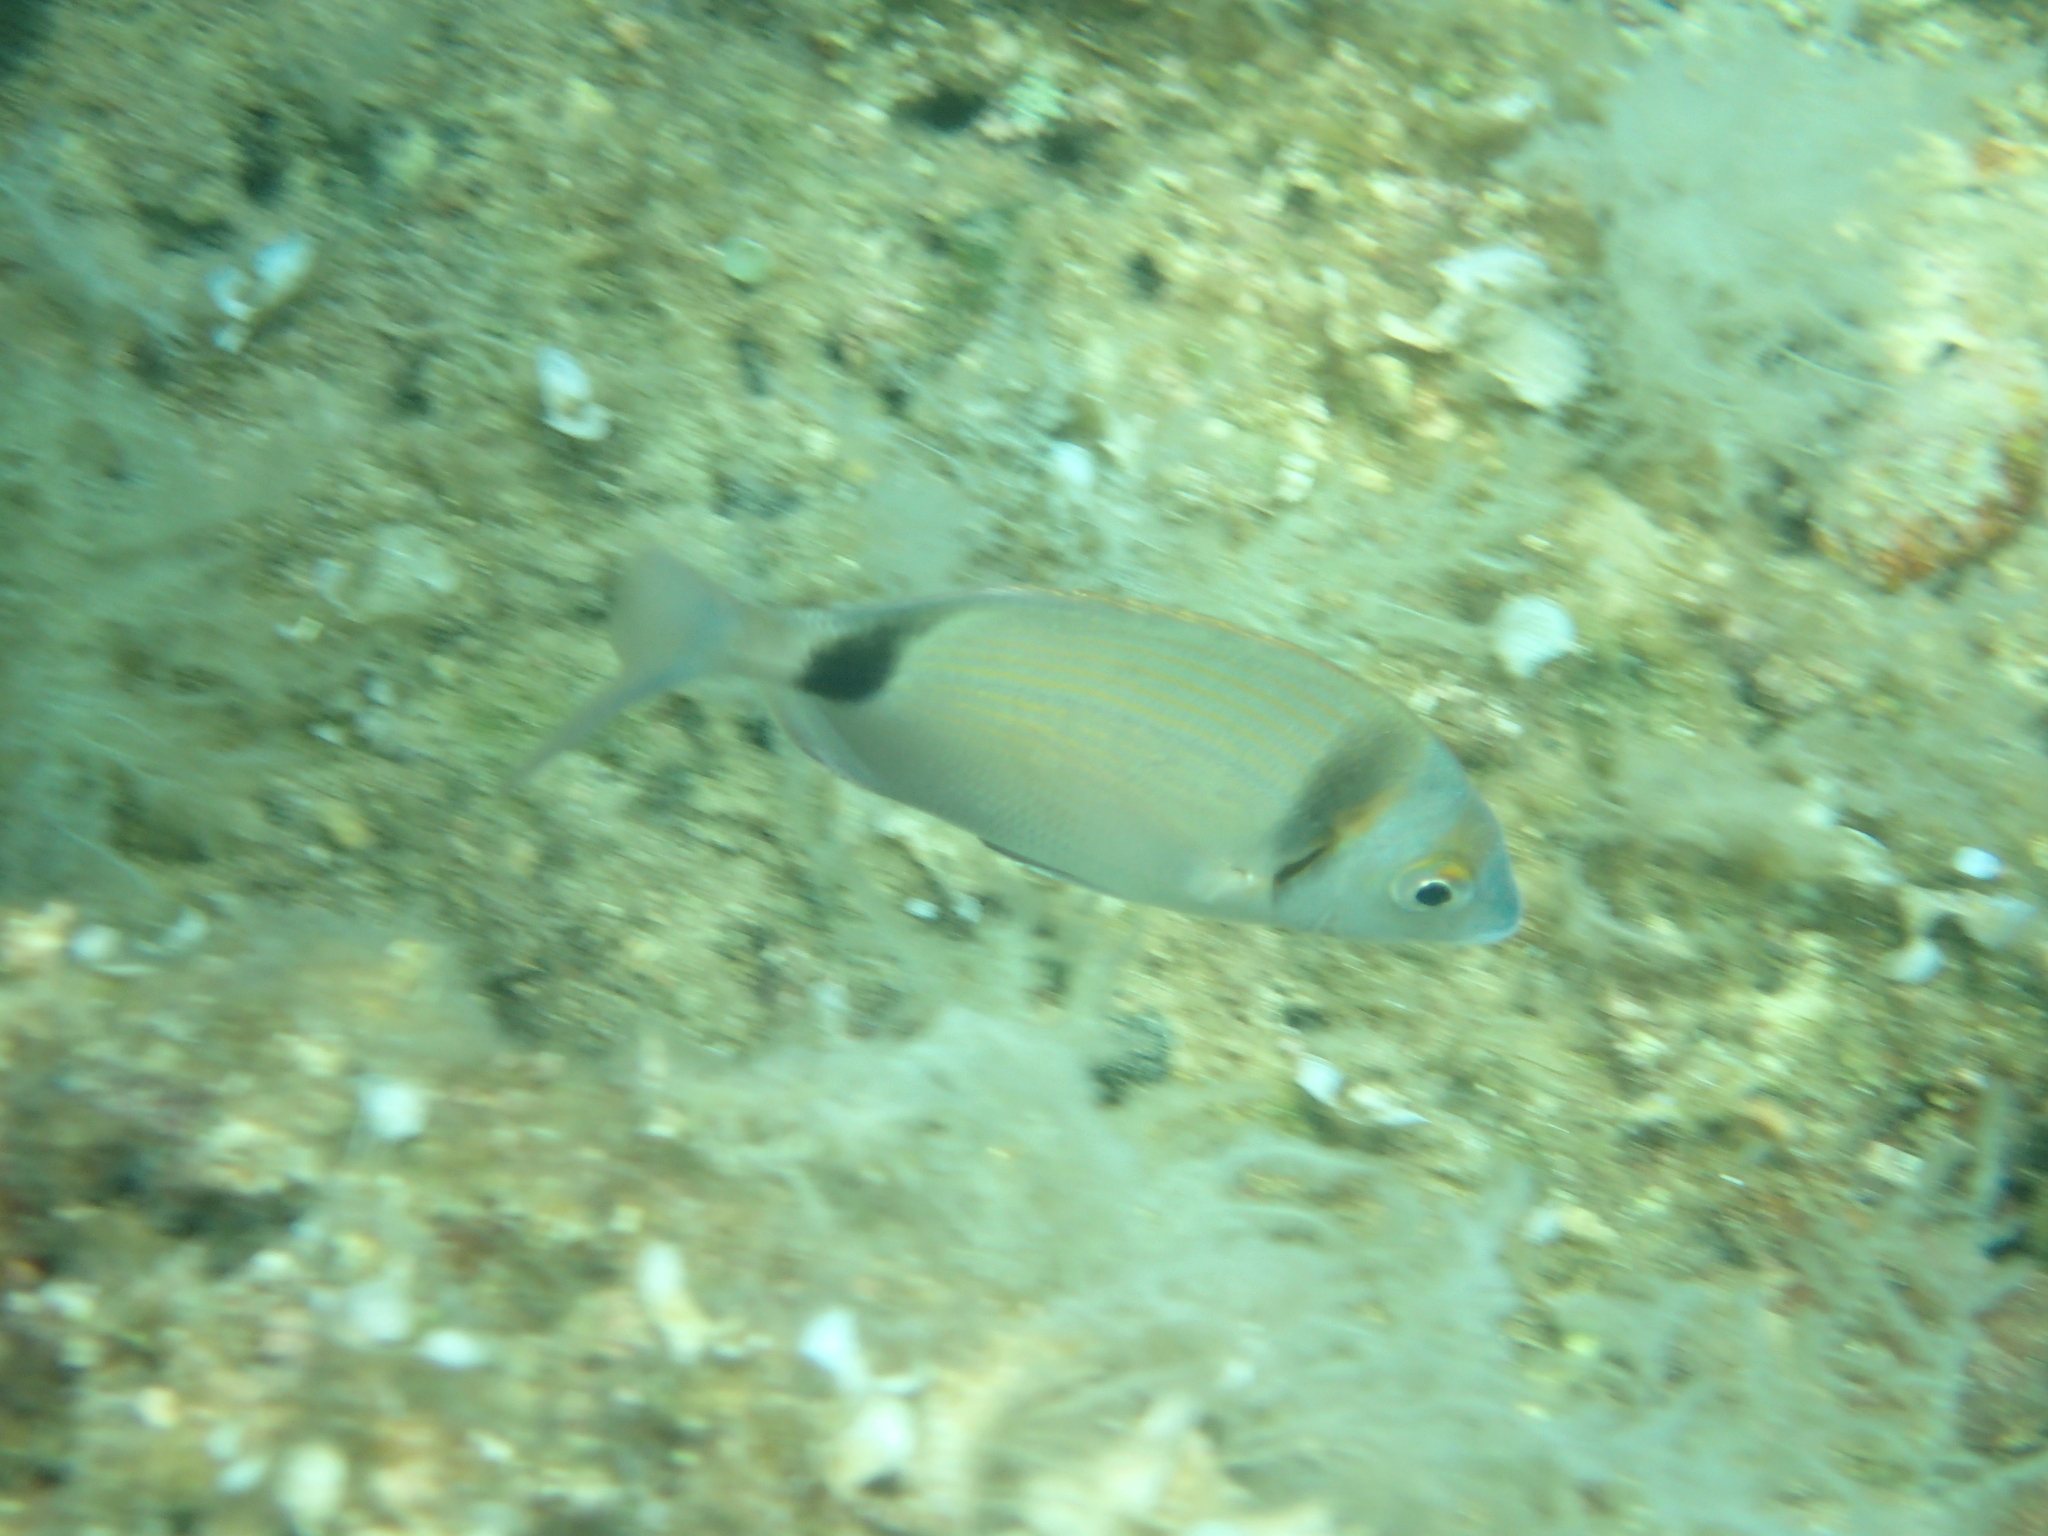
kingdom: Animalia
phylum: Chordata
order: Perciformes
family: Sparidae
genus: Diplodus
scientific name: Diplodus vulgaris
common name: Common two-banded seabream
